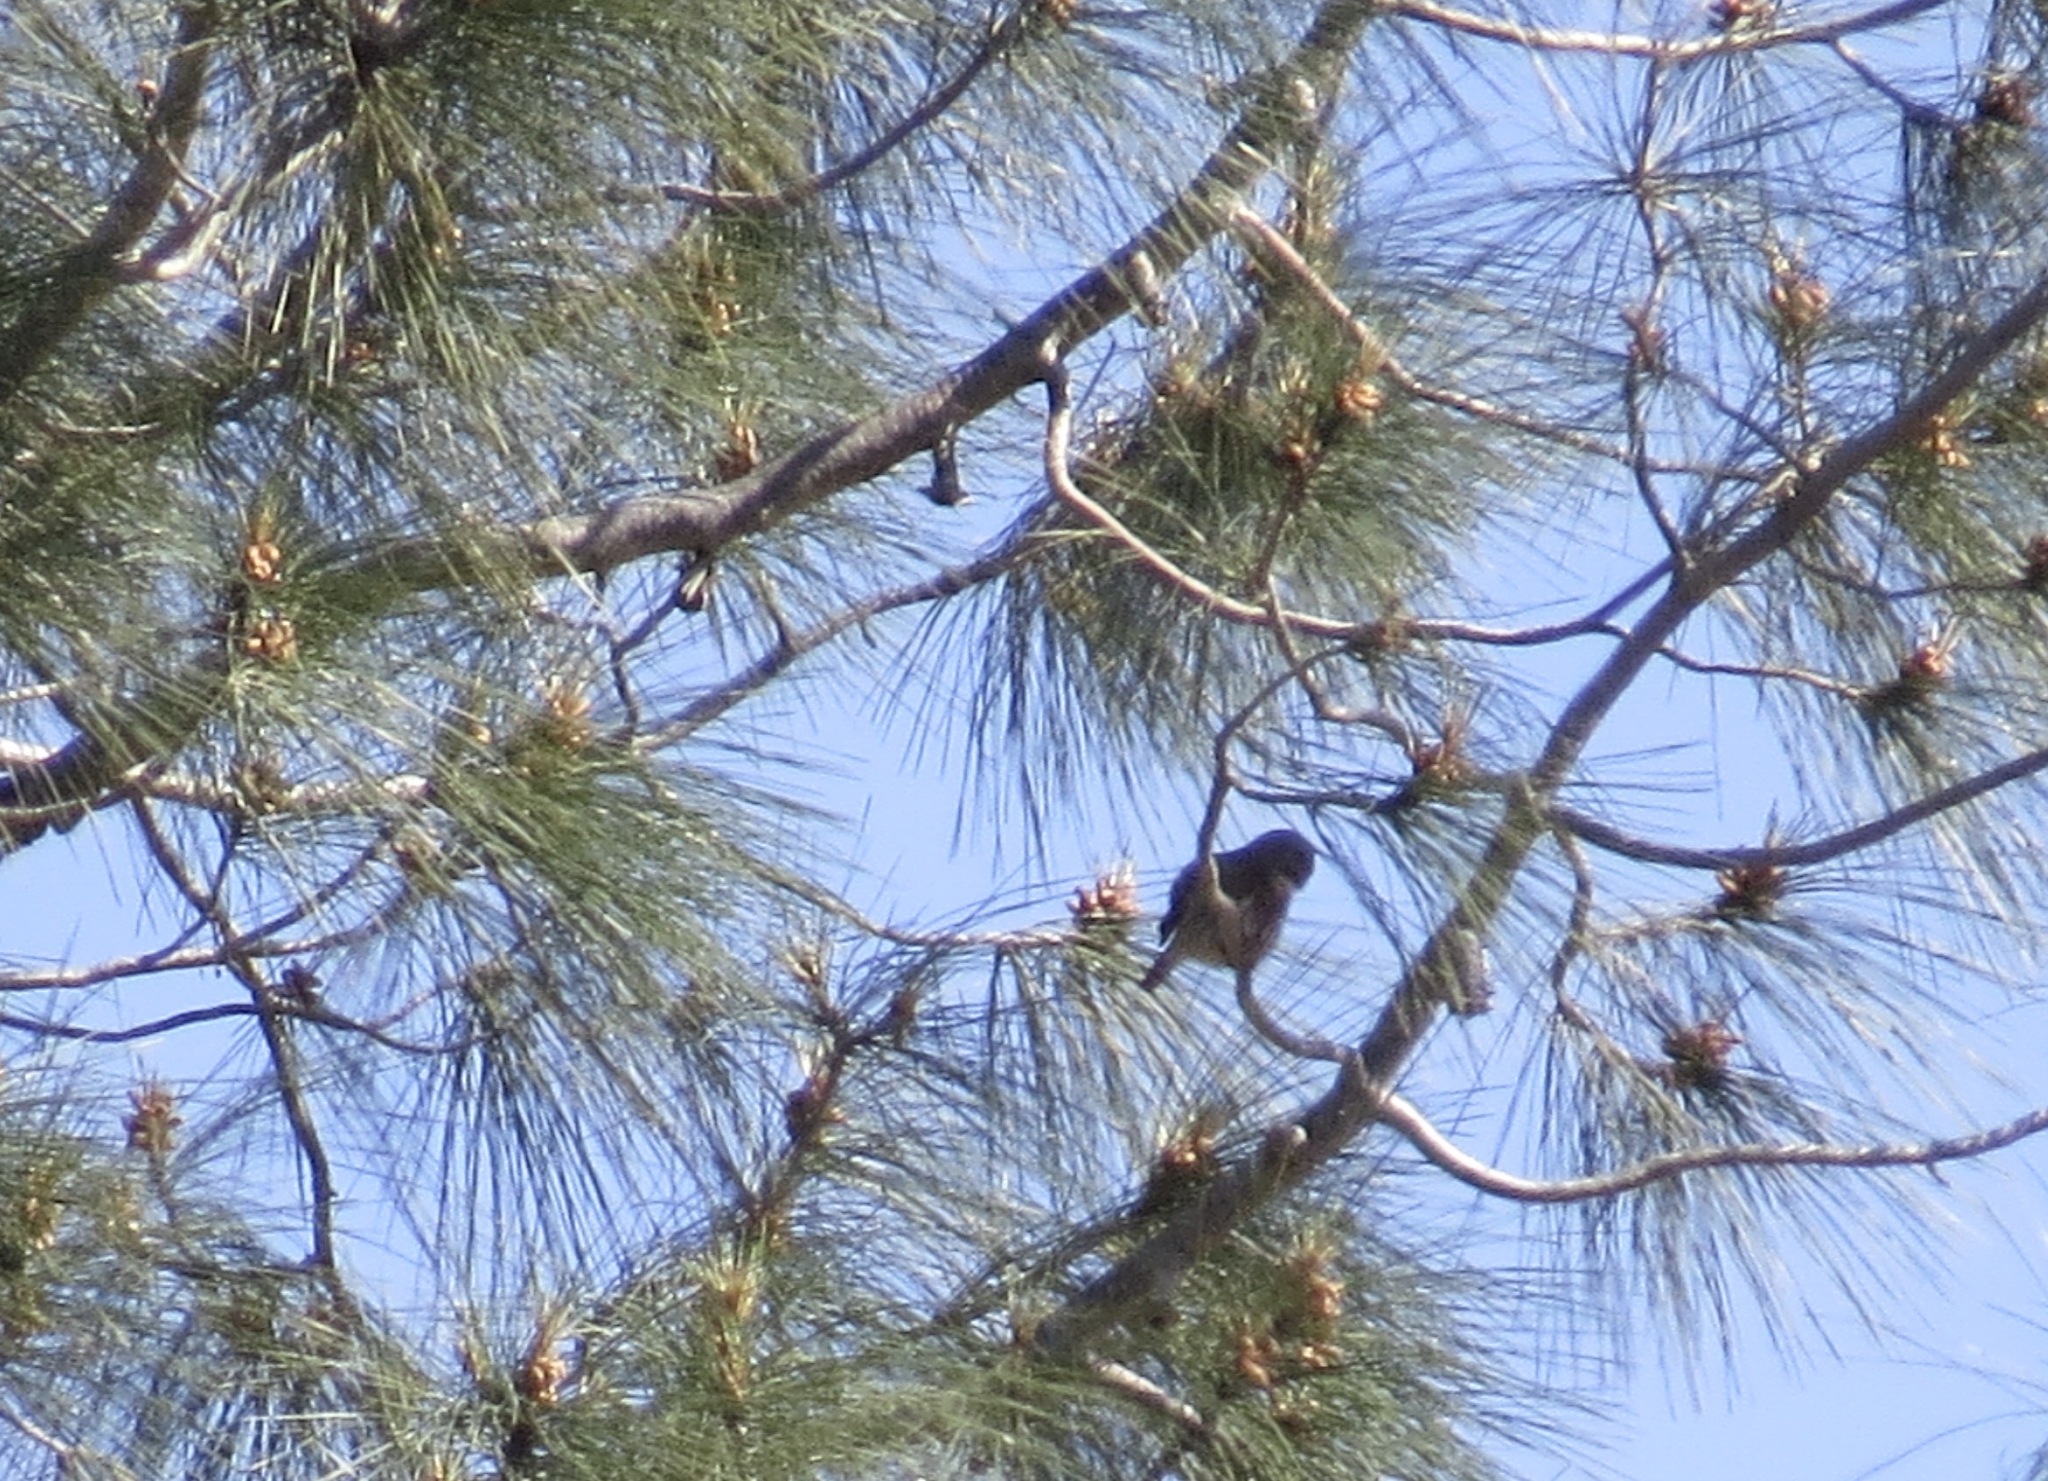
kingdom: Animalia
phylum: Chordata
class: Aves
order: Strigiformes
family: Strigidae
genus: Glaucidium
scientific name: Glaucidium gnoma
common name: Northern pygmy-owl
